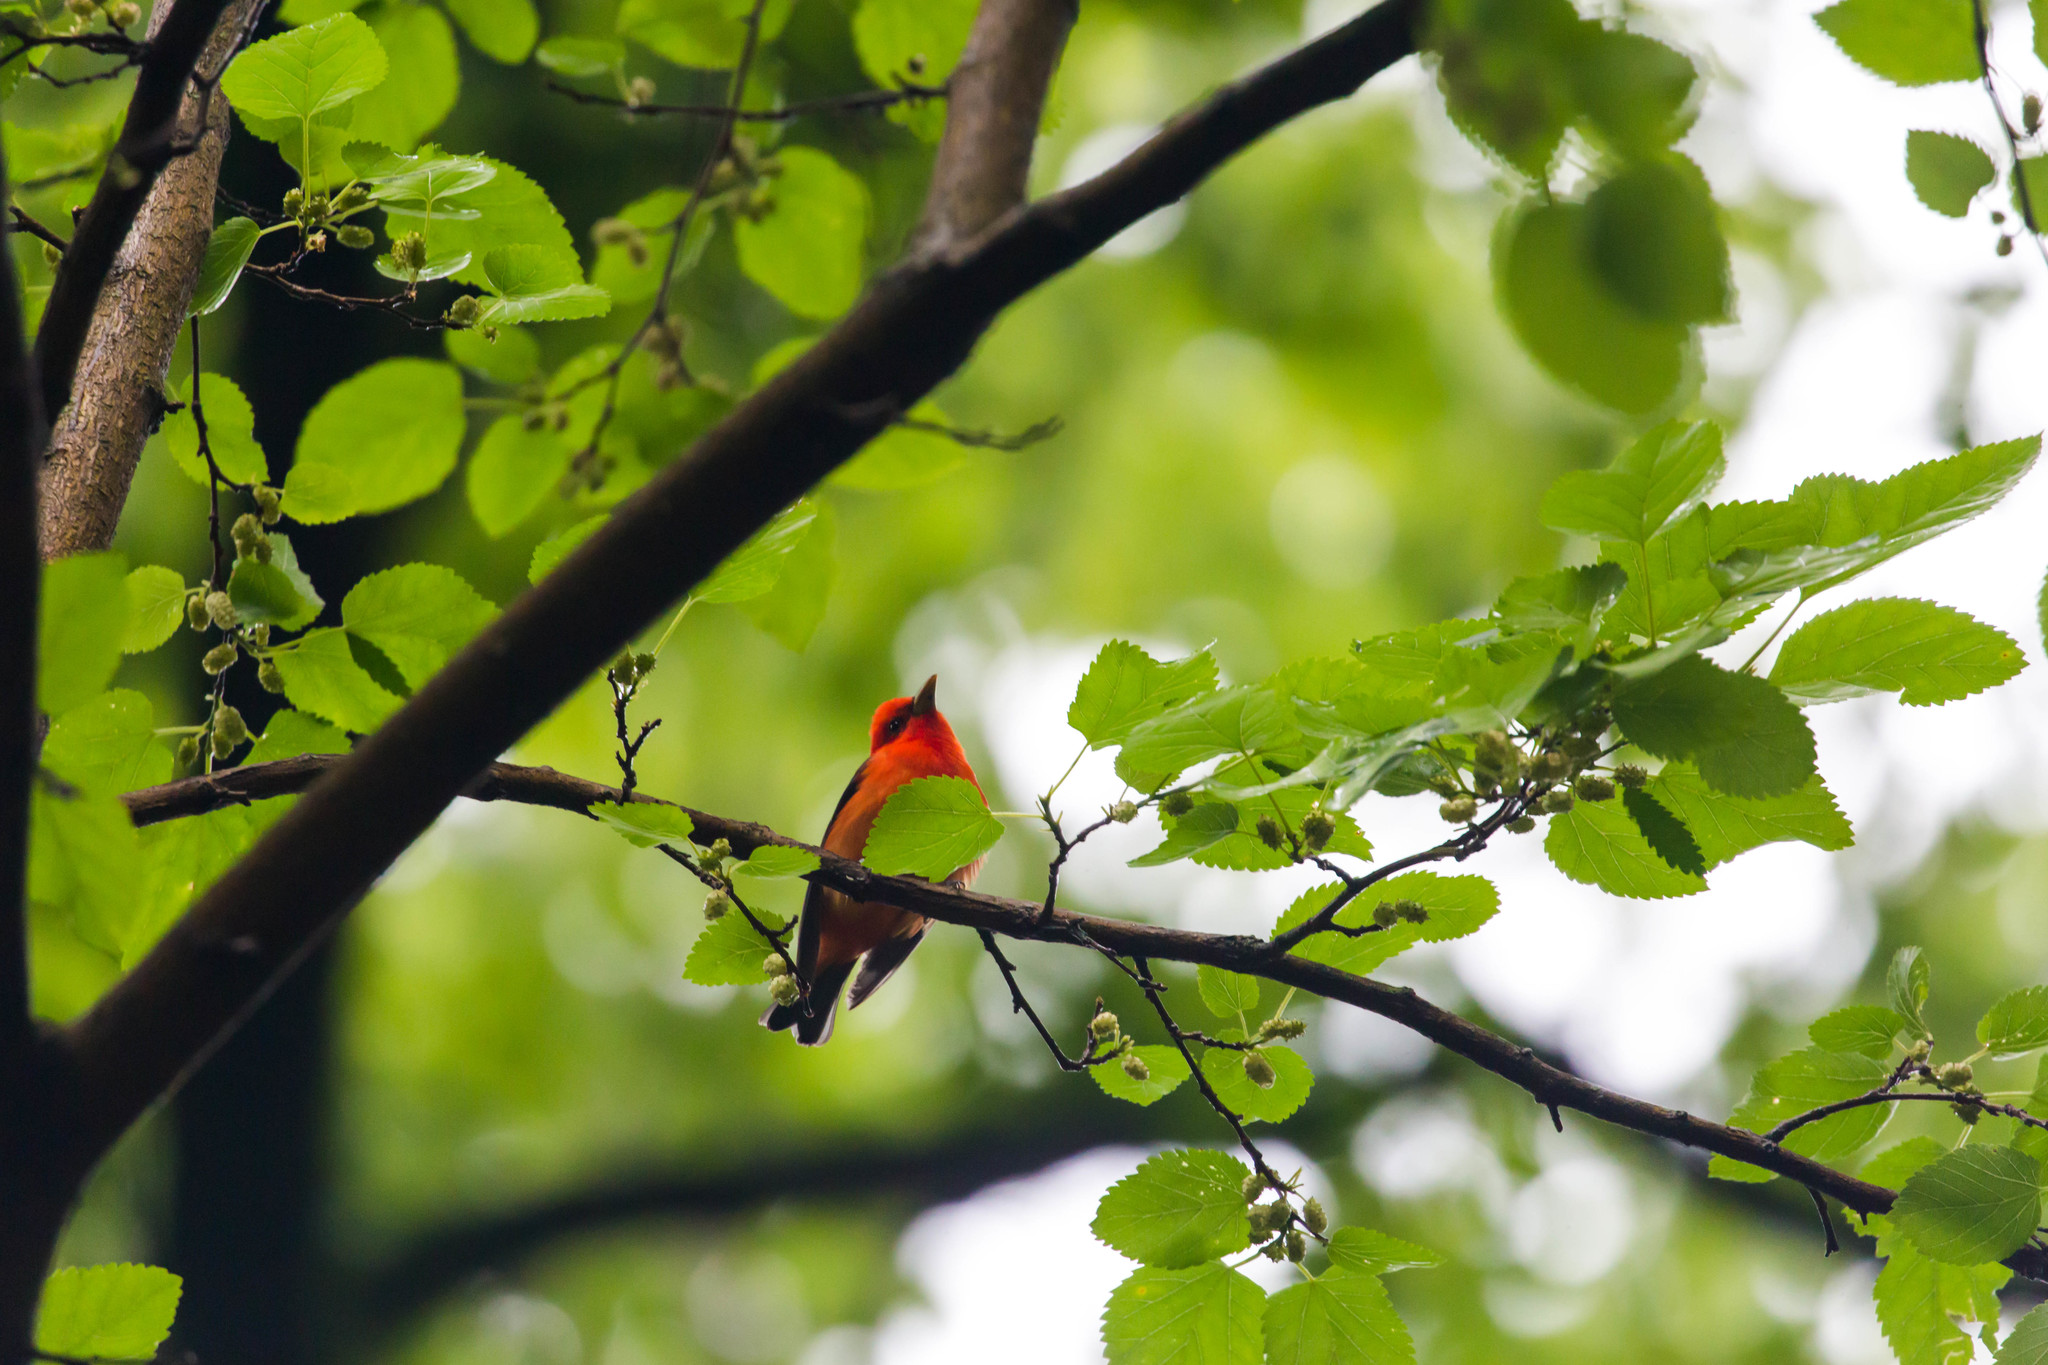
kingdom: Animalia
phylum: Chordata
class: Aves
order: Passeriformes
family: Cardinalidae
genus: Piranga
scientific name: Piranga olivacea
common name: Scarlet tanager
